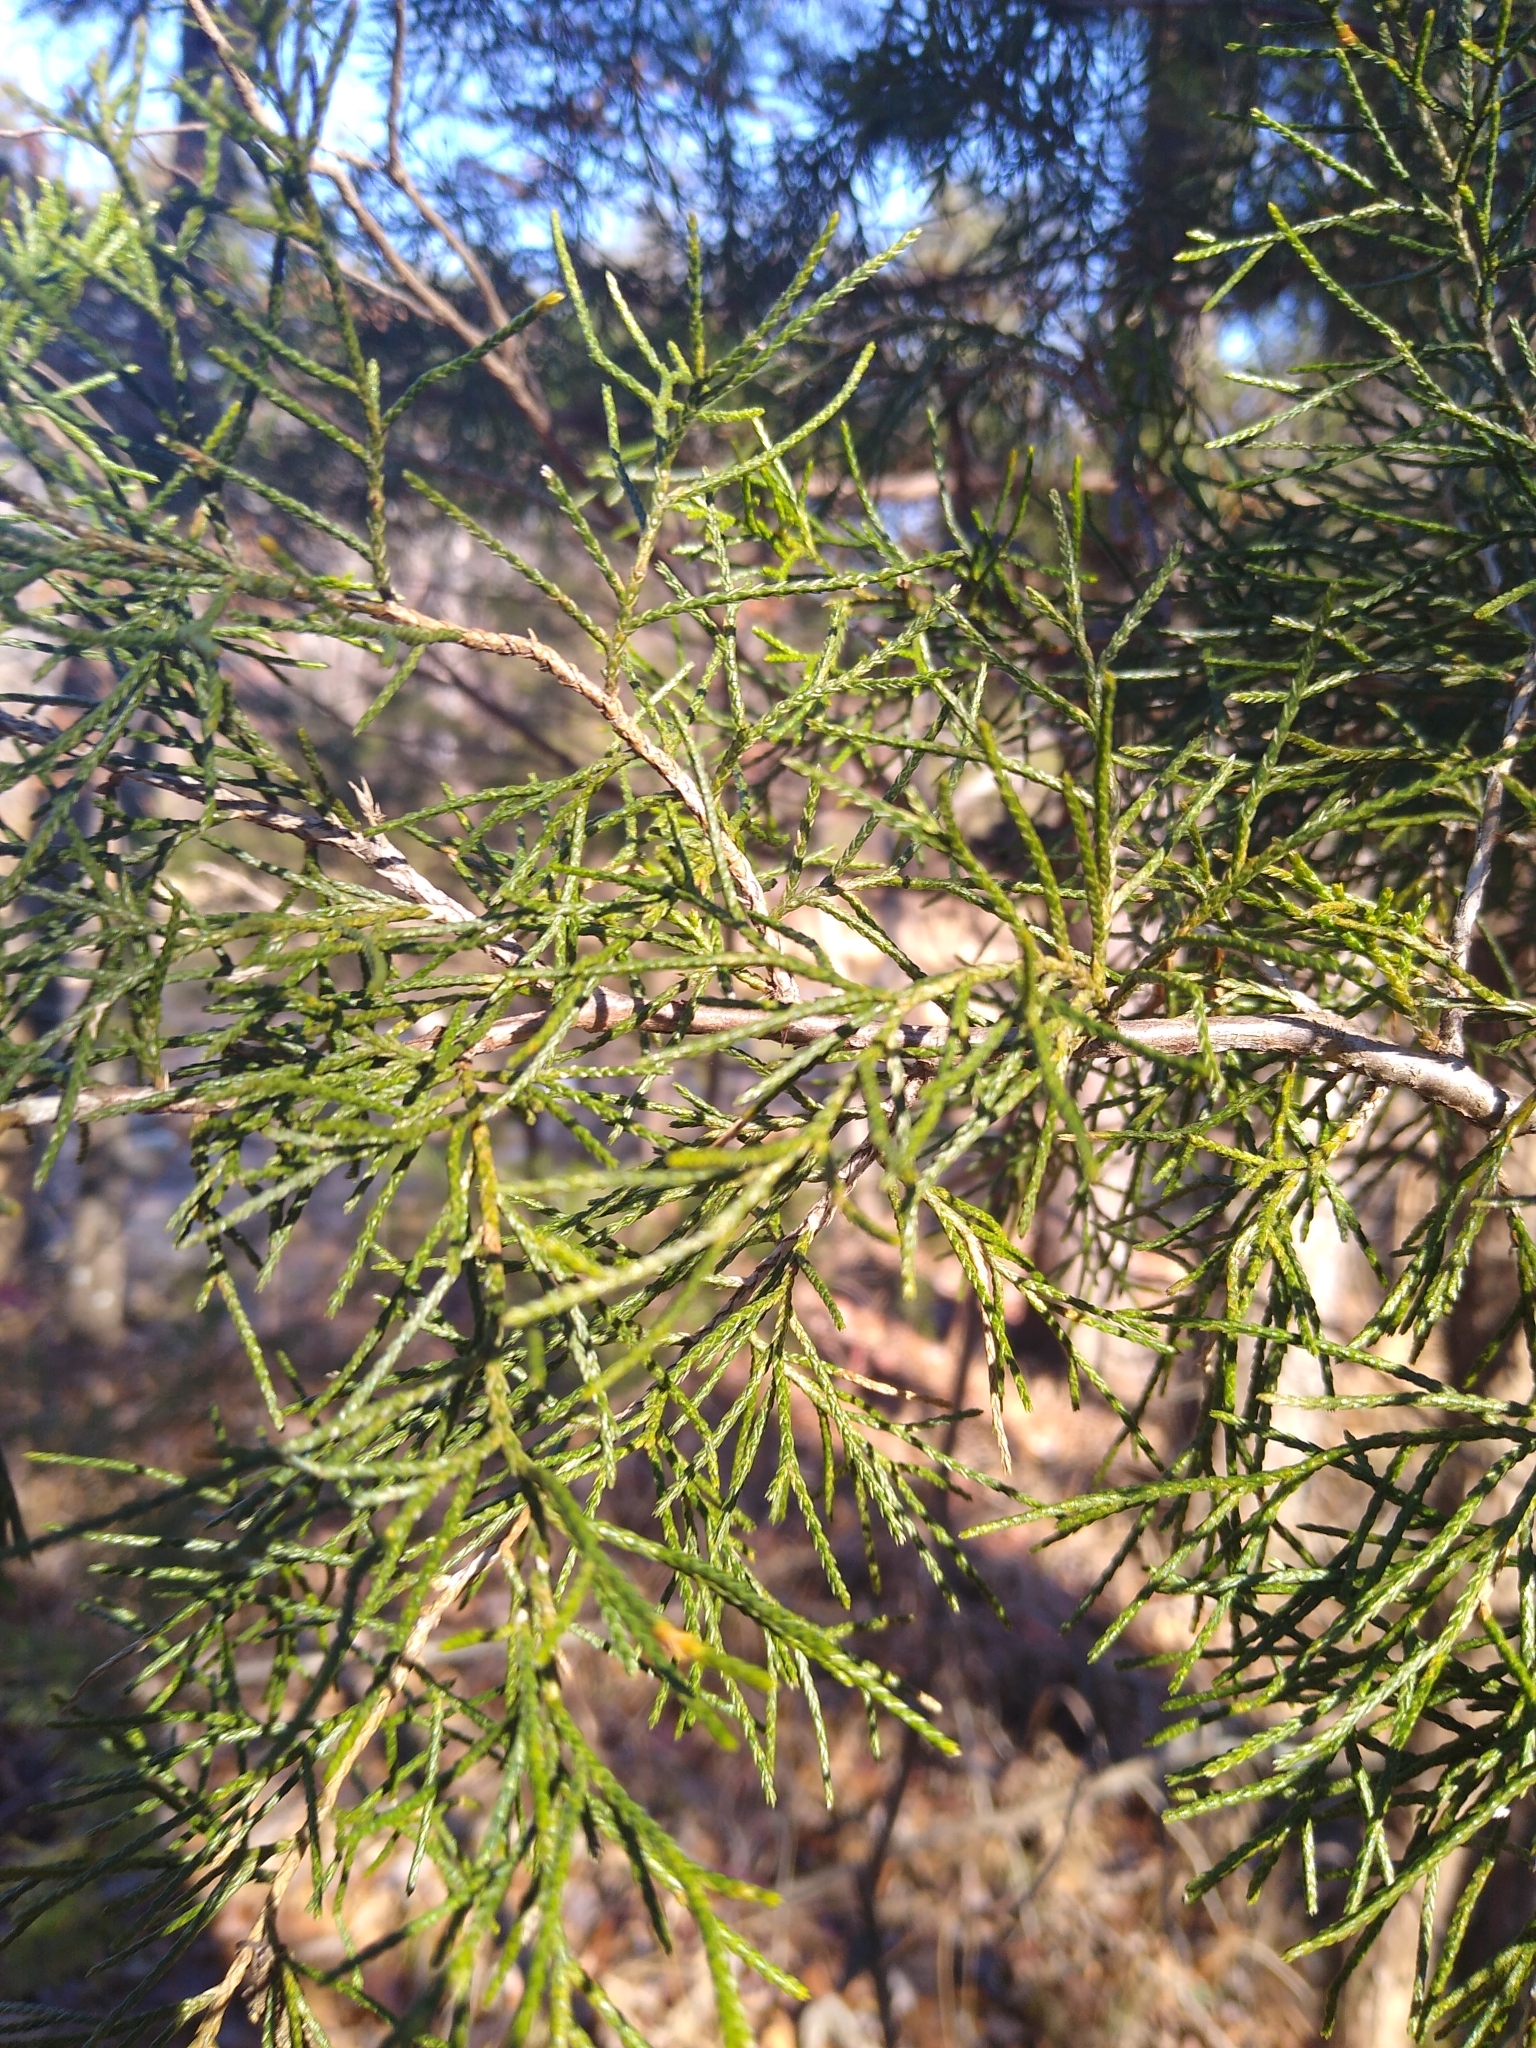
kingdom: Plantae
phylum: Tracheophyta
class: Pinopsida
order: Pinales
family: Cupressaceae
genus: Juniperus
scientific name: Juniperus virginiana
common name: Red juniper
